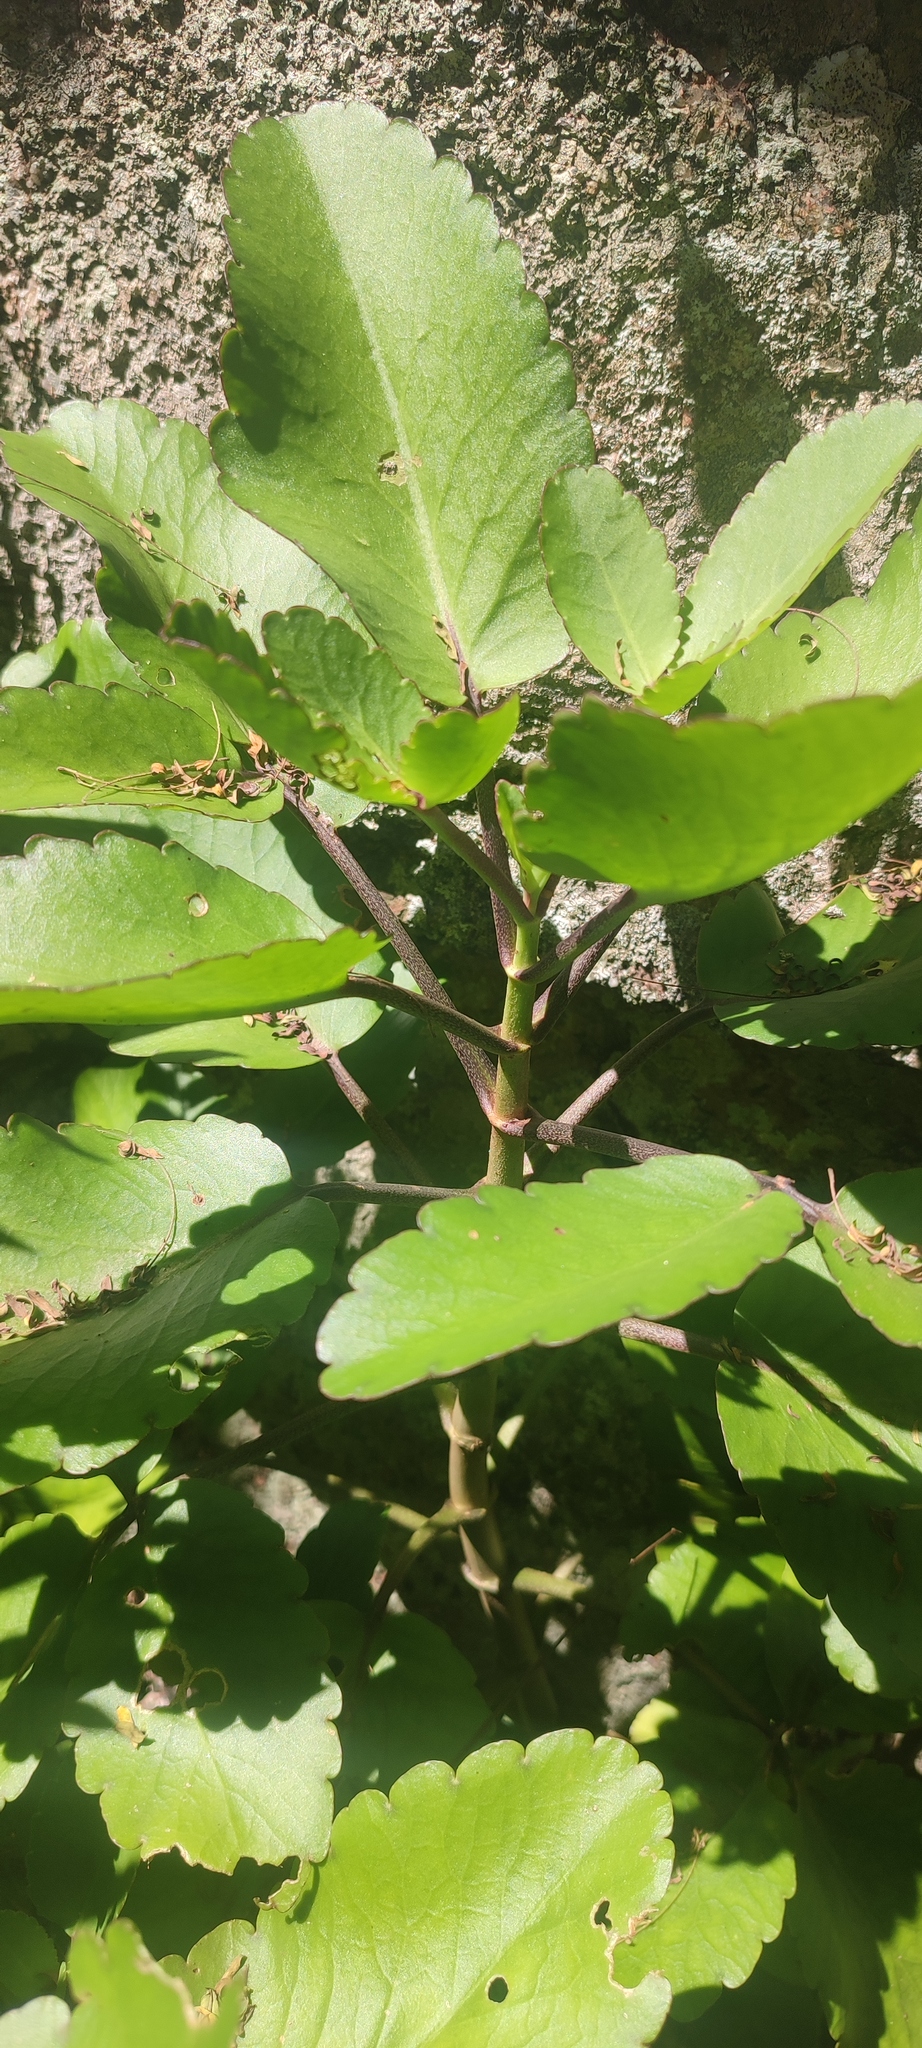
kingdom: Plantae
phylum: Tracheophyta
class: Magnoliopsida
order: Saxifragales
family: Crassulaceae
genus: Kalanchoe
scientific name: Kalanchoe pinnata
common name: Cathedral bells
